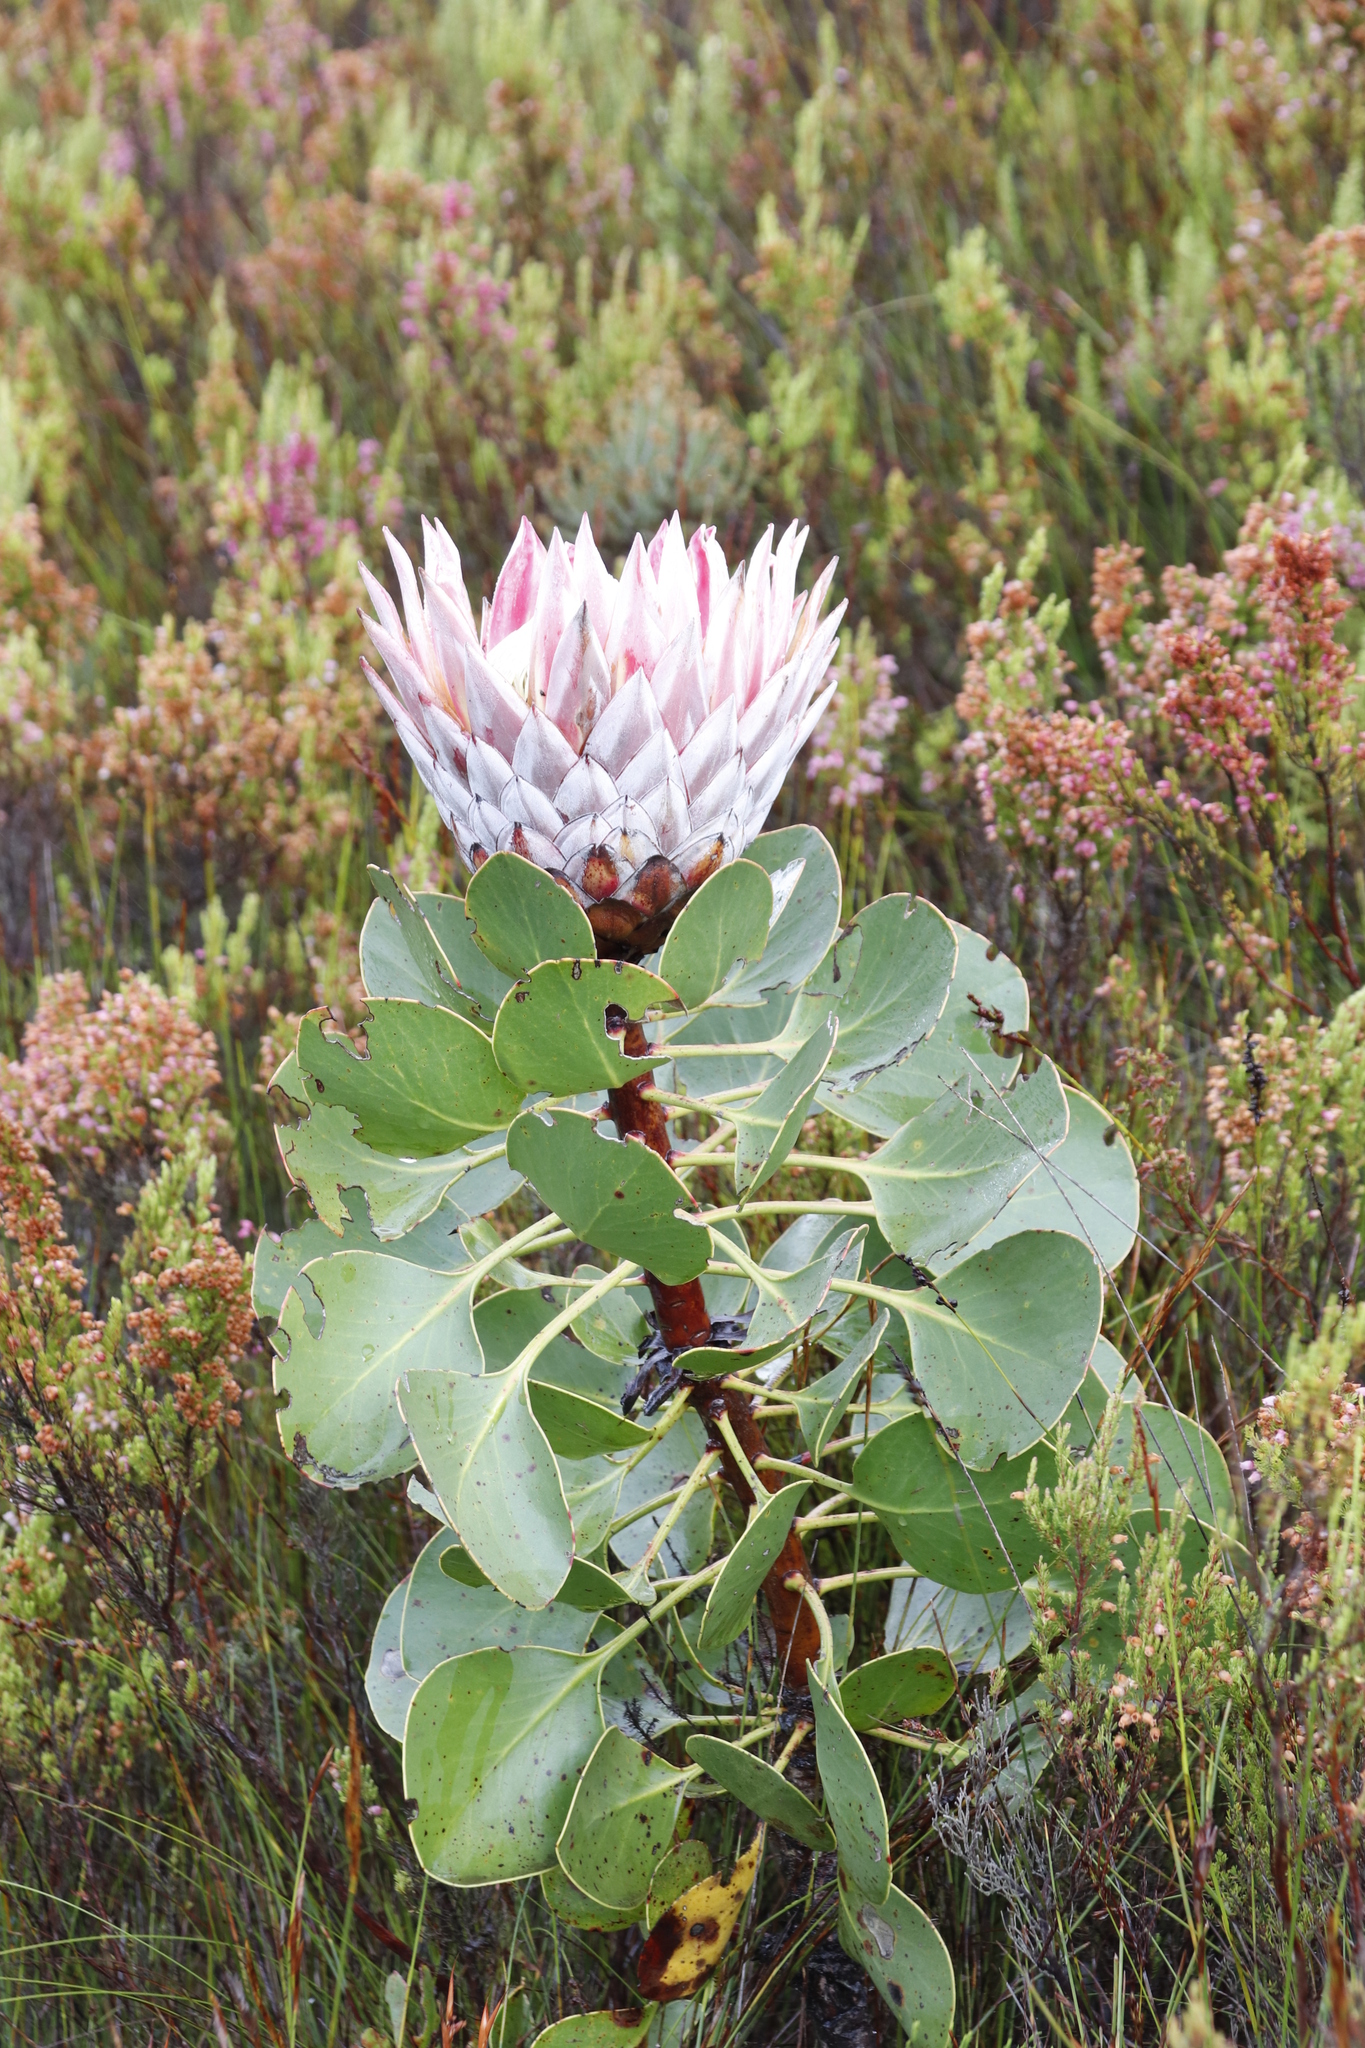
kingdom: Plantae
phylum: Tracheophyta
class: Magnoliopsida
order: Proteales
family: Proteaceae
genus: Protea
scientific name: Protea cynaroides
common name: King protea
